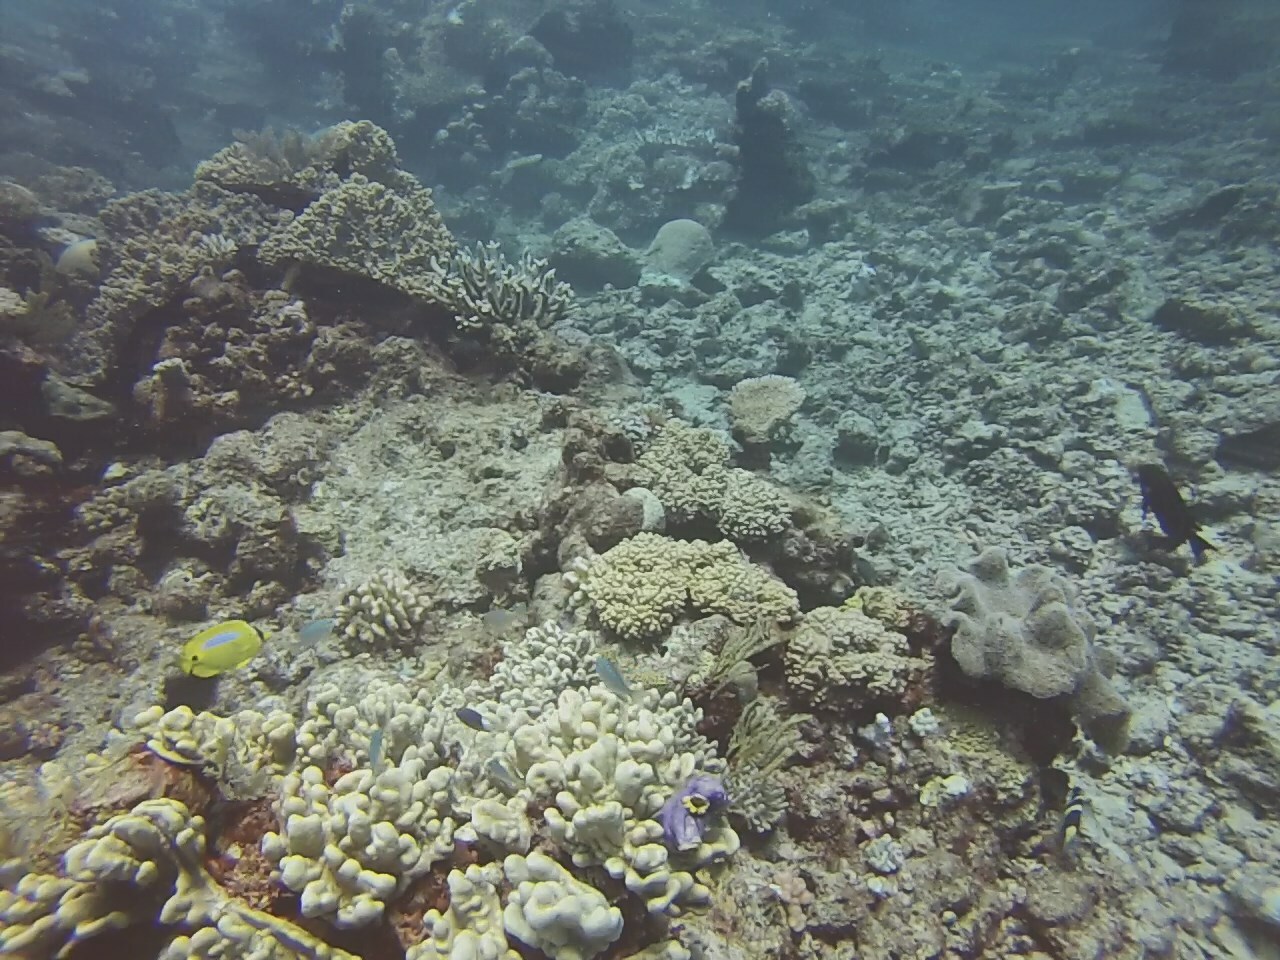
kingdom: Animalia
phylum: Chordata
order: Perciformes
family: Chaetodontidae
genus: Chaetodon
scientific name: Chaetodon plebeius
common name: Bluespot butterflyfish
